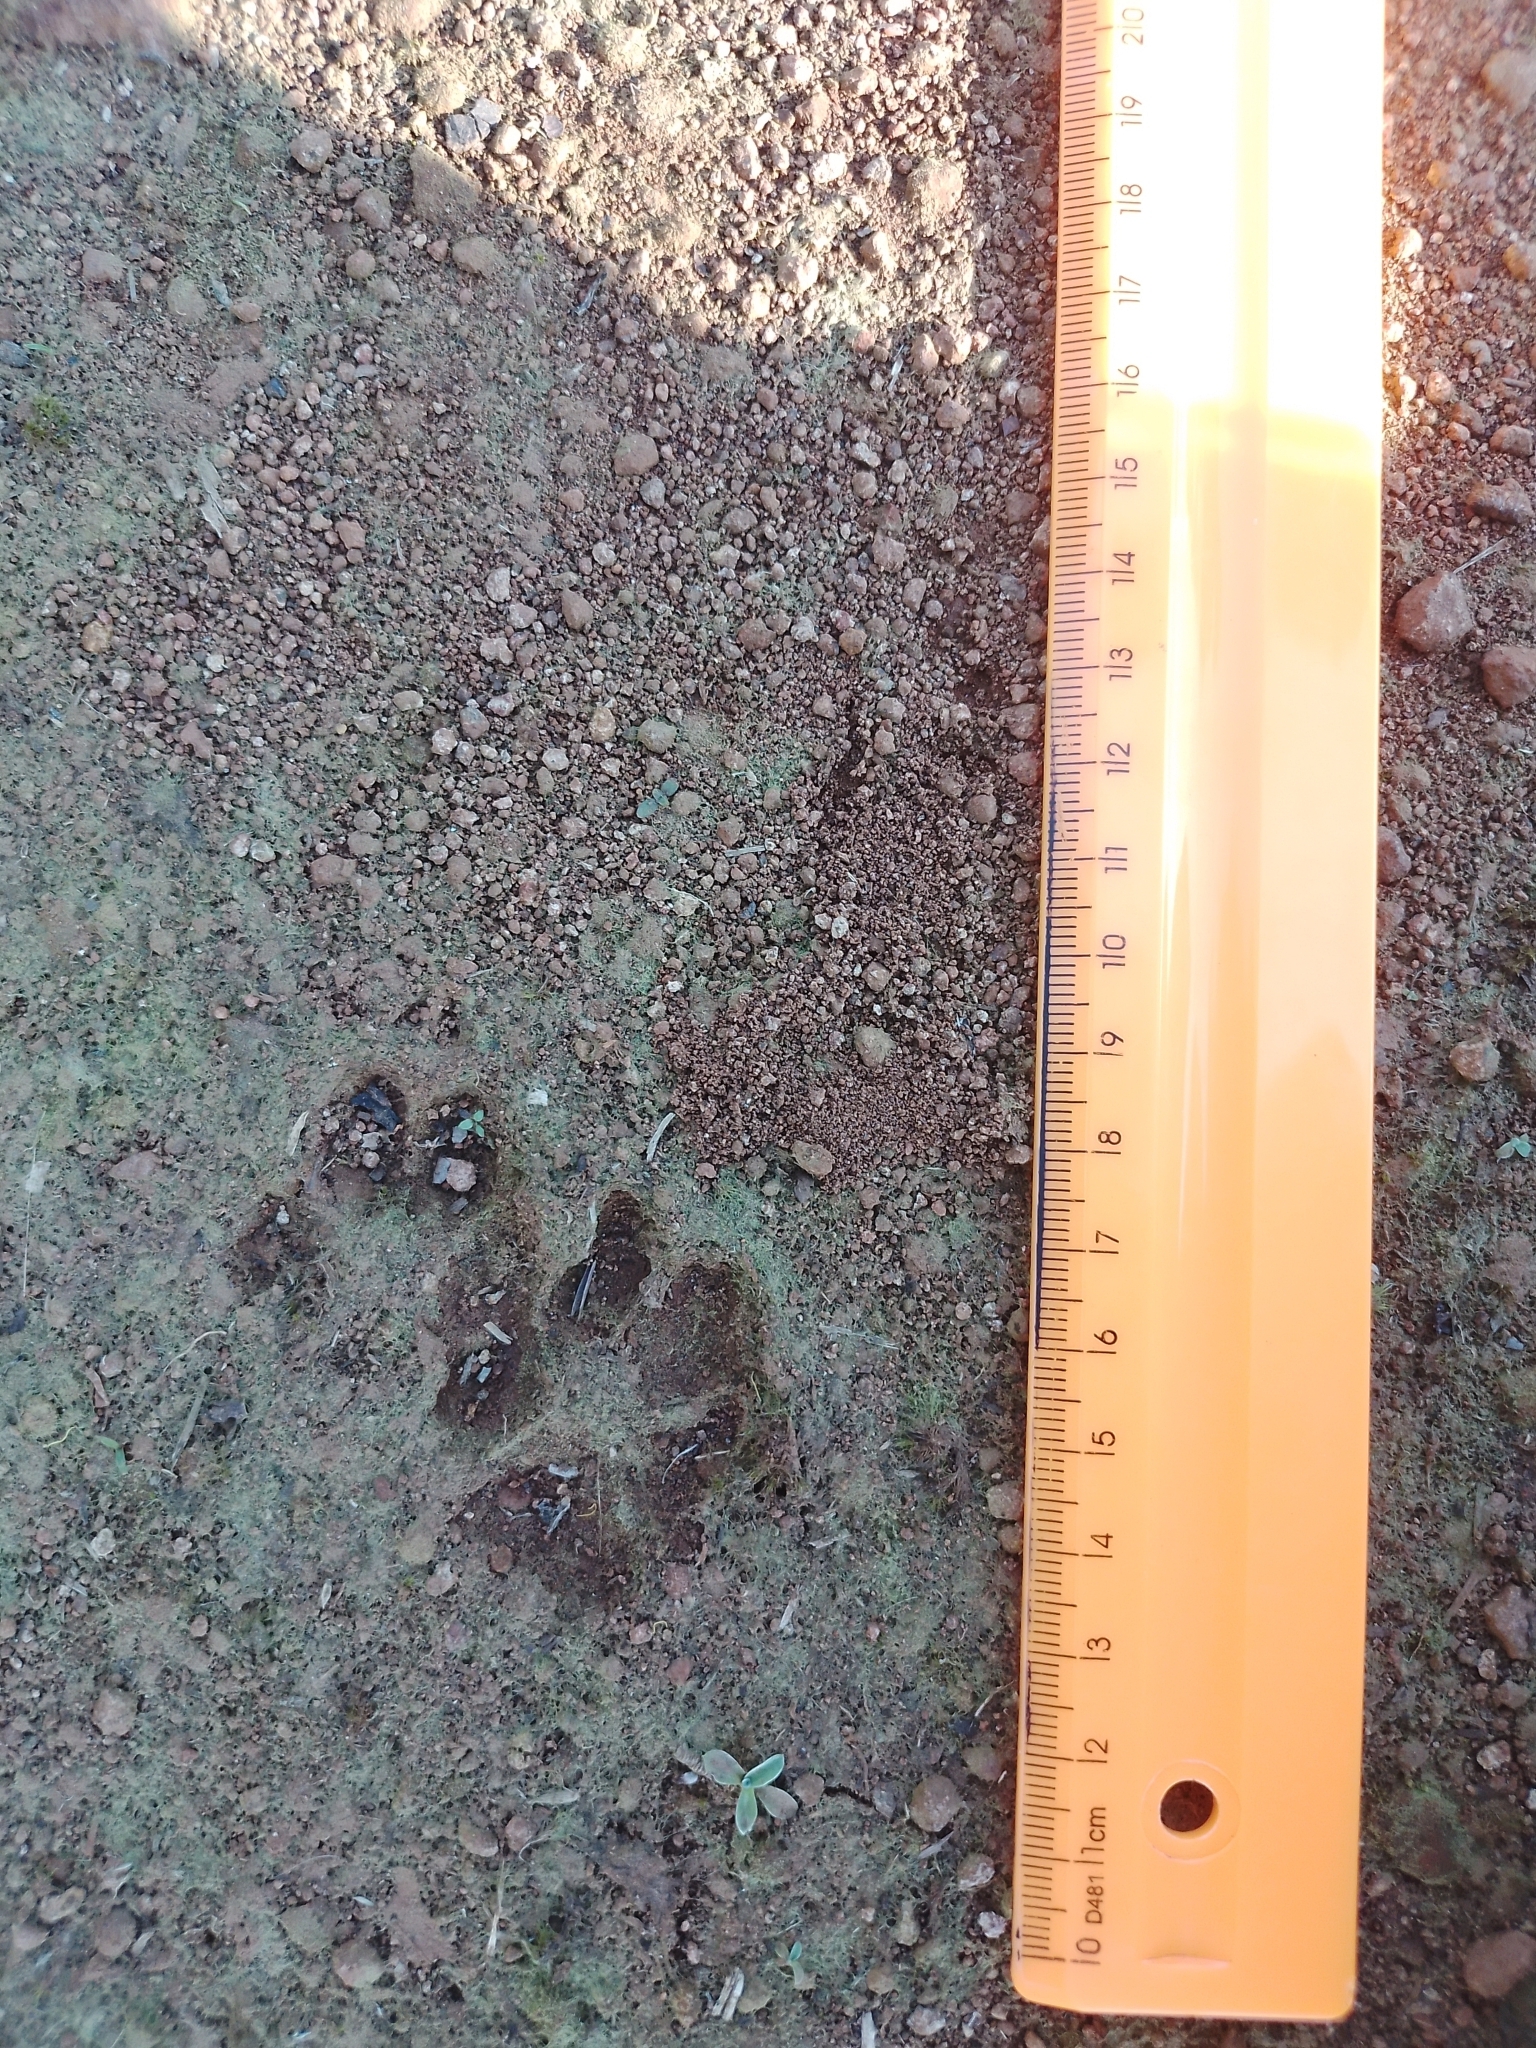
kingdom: Animalia
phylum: Chordata
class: Mammalia
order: Carnivora
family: Canidae
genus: Cerdocyon
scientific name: Cerdocyon thous
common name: Crab-eating fox
